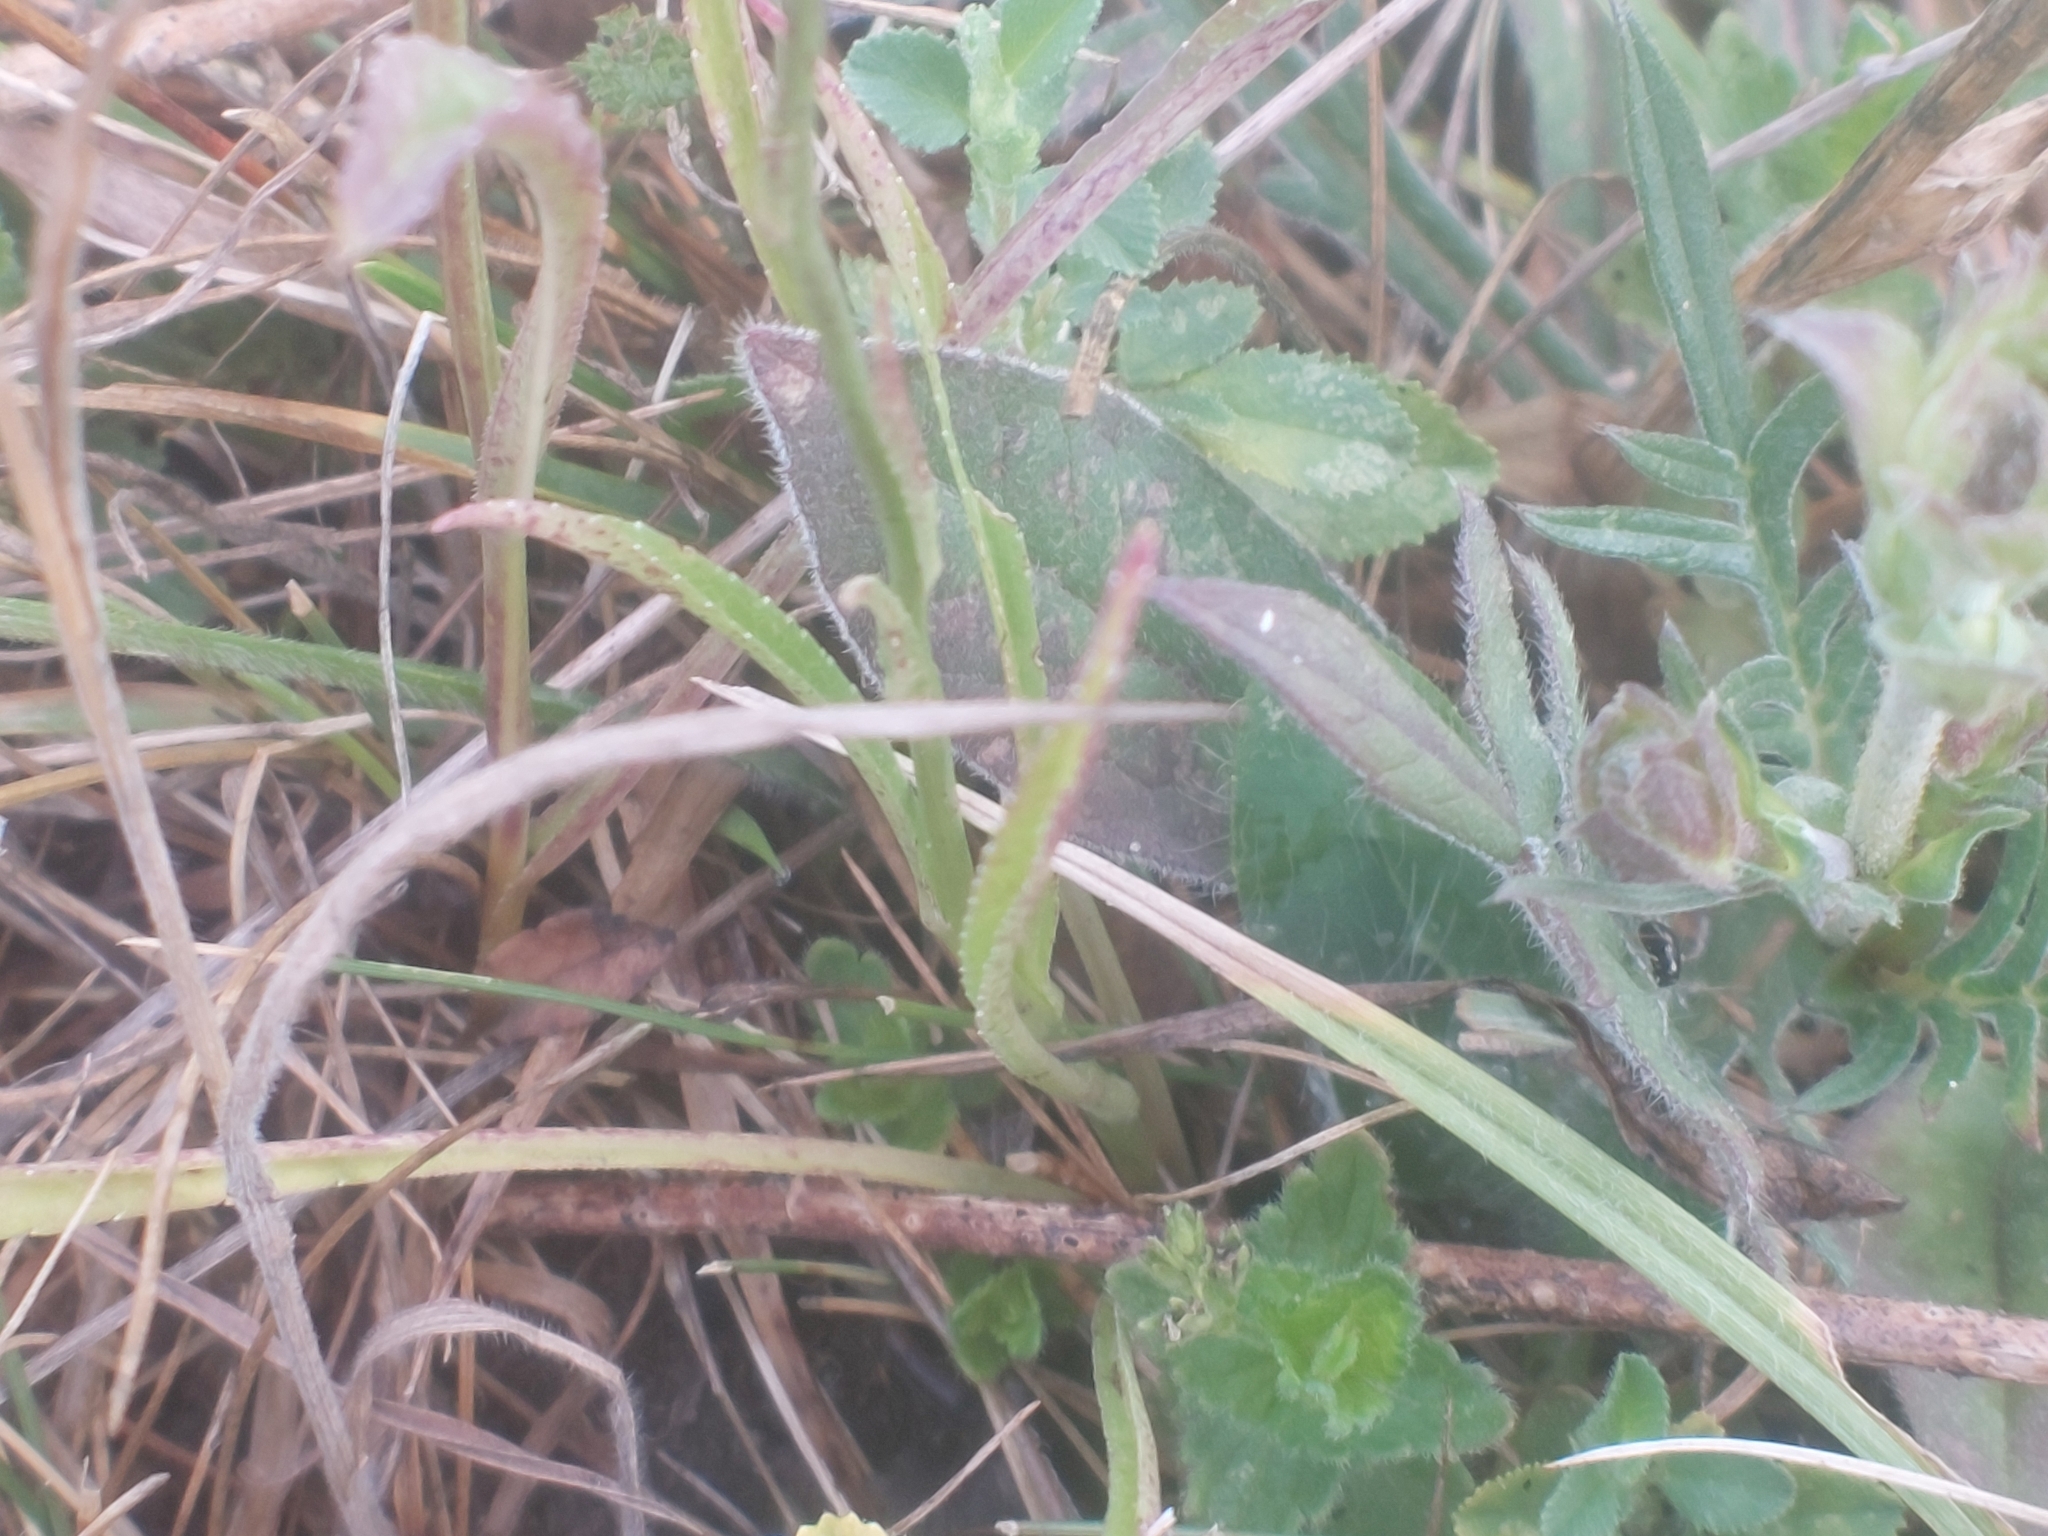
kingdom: Plantae
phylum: Tracheophyta
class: Magnoliopsida
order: Asterales
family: Campanulaceae
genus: Campanula
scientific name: Campanula persicifolia
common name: Peach-leaved bellflower
